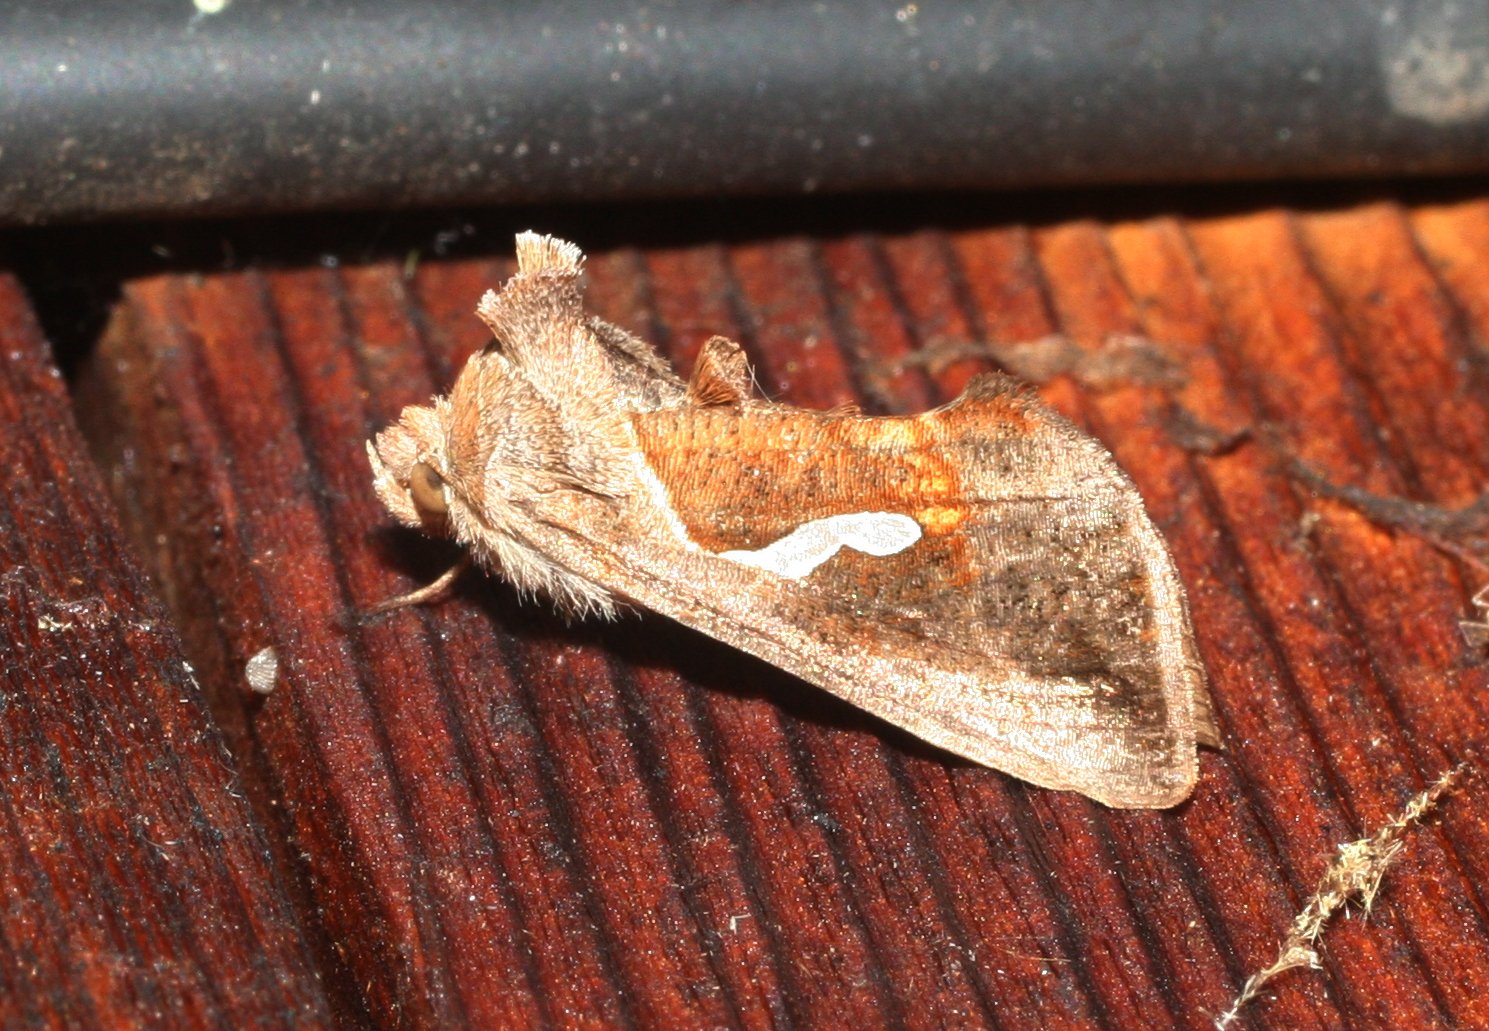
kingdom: Animalia
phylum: Arthropoda
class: Insecta
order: Lepidoptera
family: Noctuidae
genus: Macdunnoughia
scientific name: Macdunnoughia confusa
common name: Dewick's plusia
